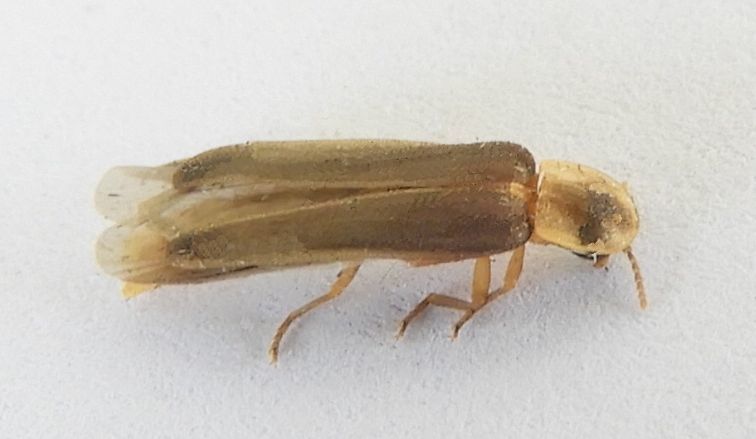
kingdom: Animalia
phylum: Arthropoda
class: Insecta
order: Coleoptera
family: Lampyridae
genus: Microphotus
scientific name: Microphotus chiricahuae
